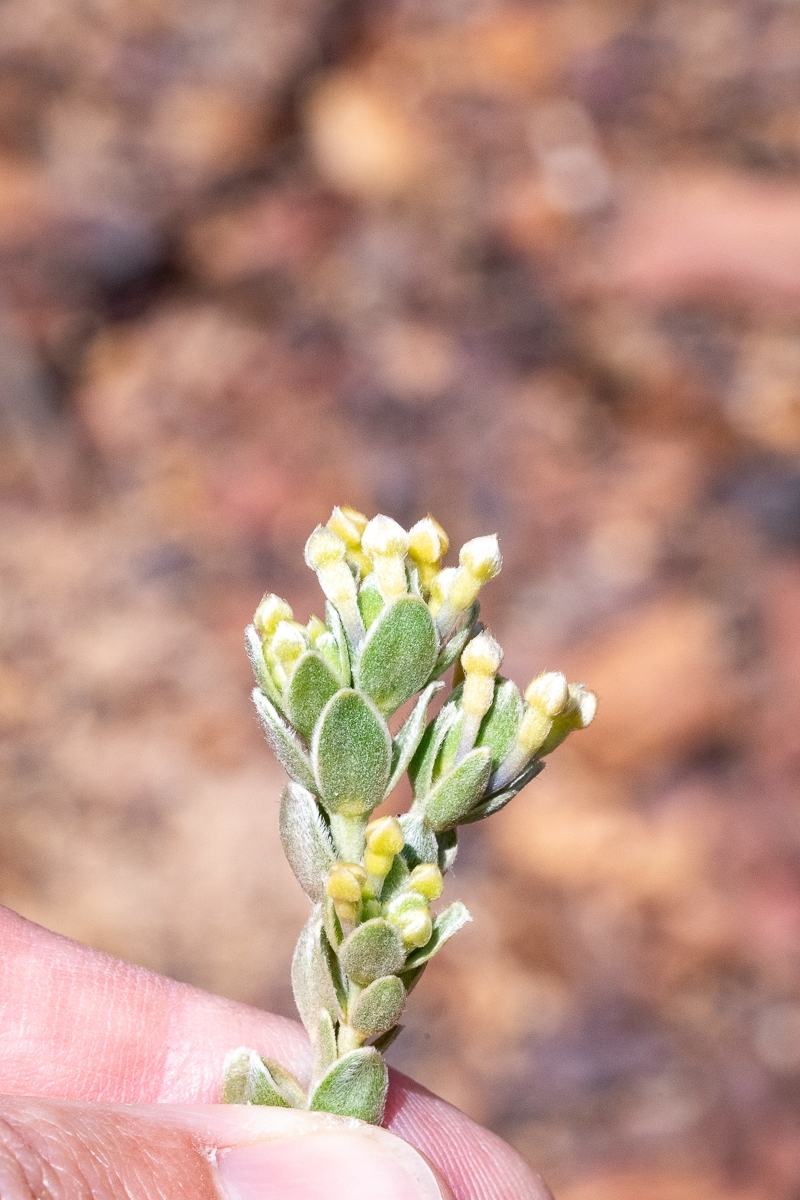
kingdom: Plantae
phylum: Tracheophyta
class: Magnoliopsida
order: Malvales
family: Thymelaeaceae
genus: Gnidia
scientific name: Gnidia anomala
